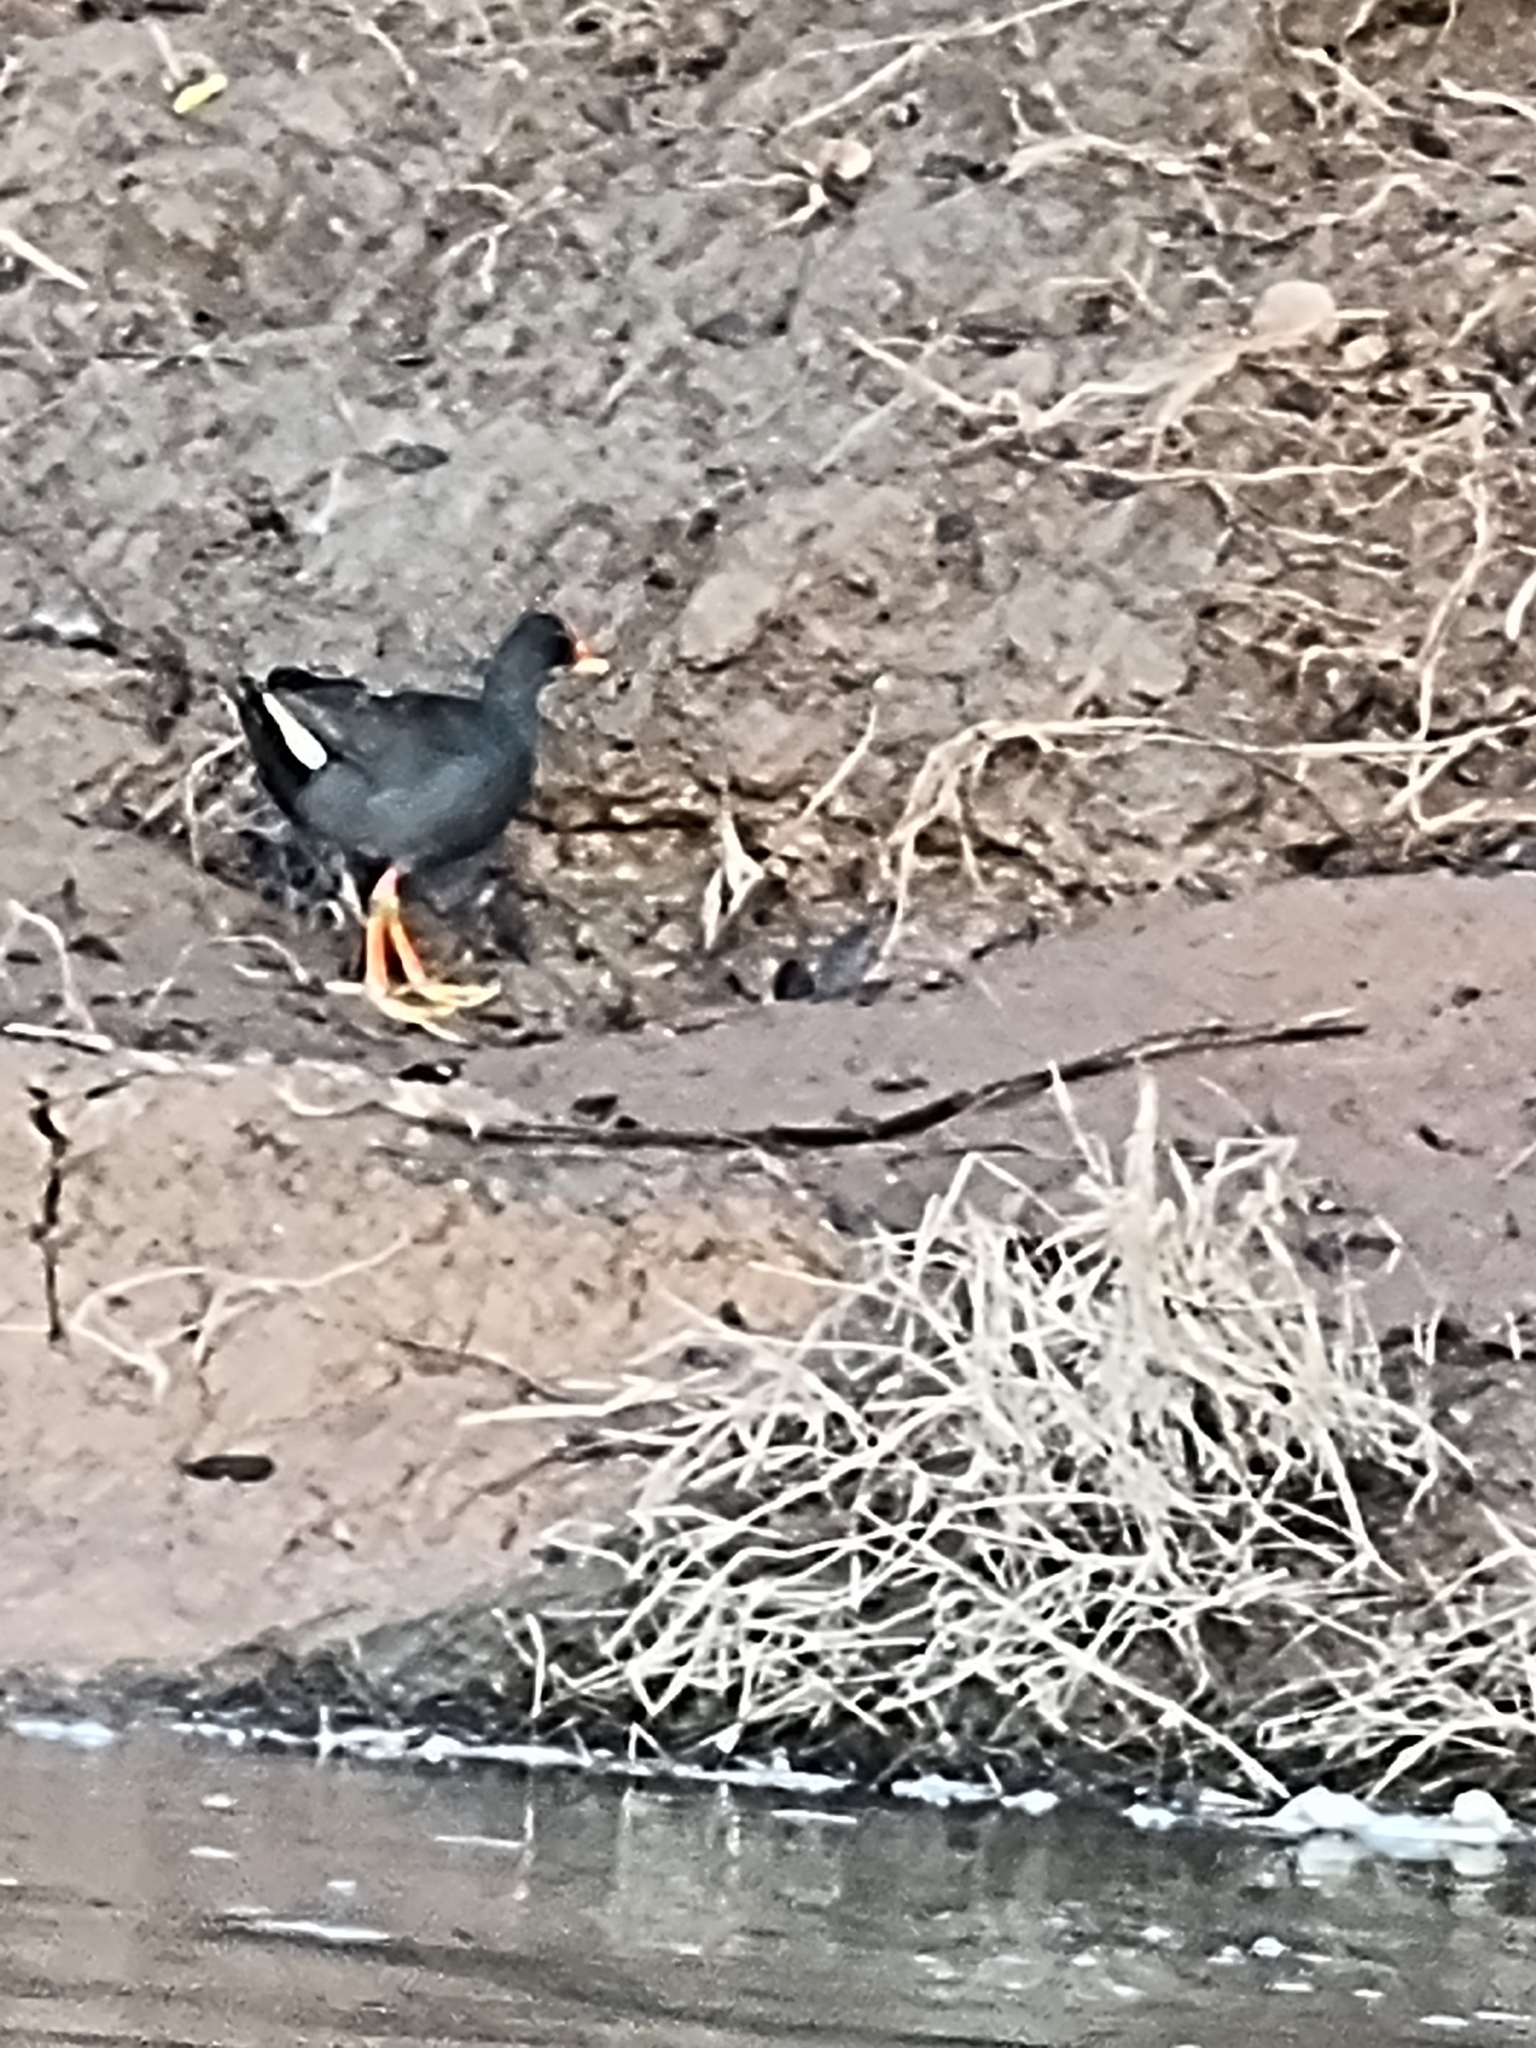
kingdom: Animalia
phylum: Chordata
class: Aves
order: Gruiformes
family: Rallidae
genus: Gallinula
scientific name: Gallinula tenebrosa
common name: Dusky moorhen
